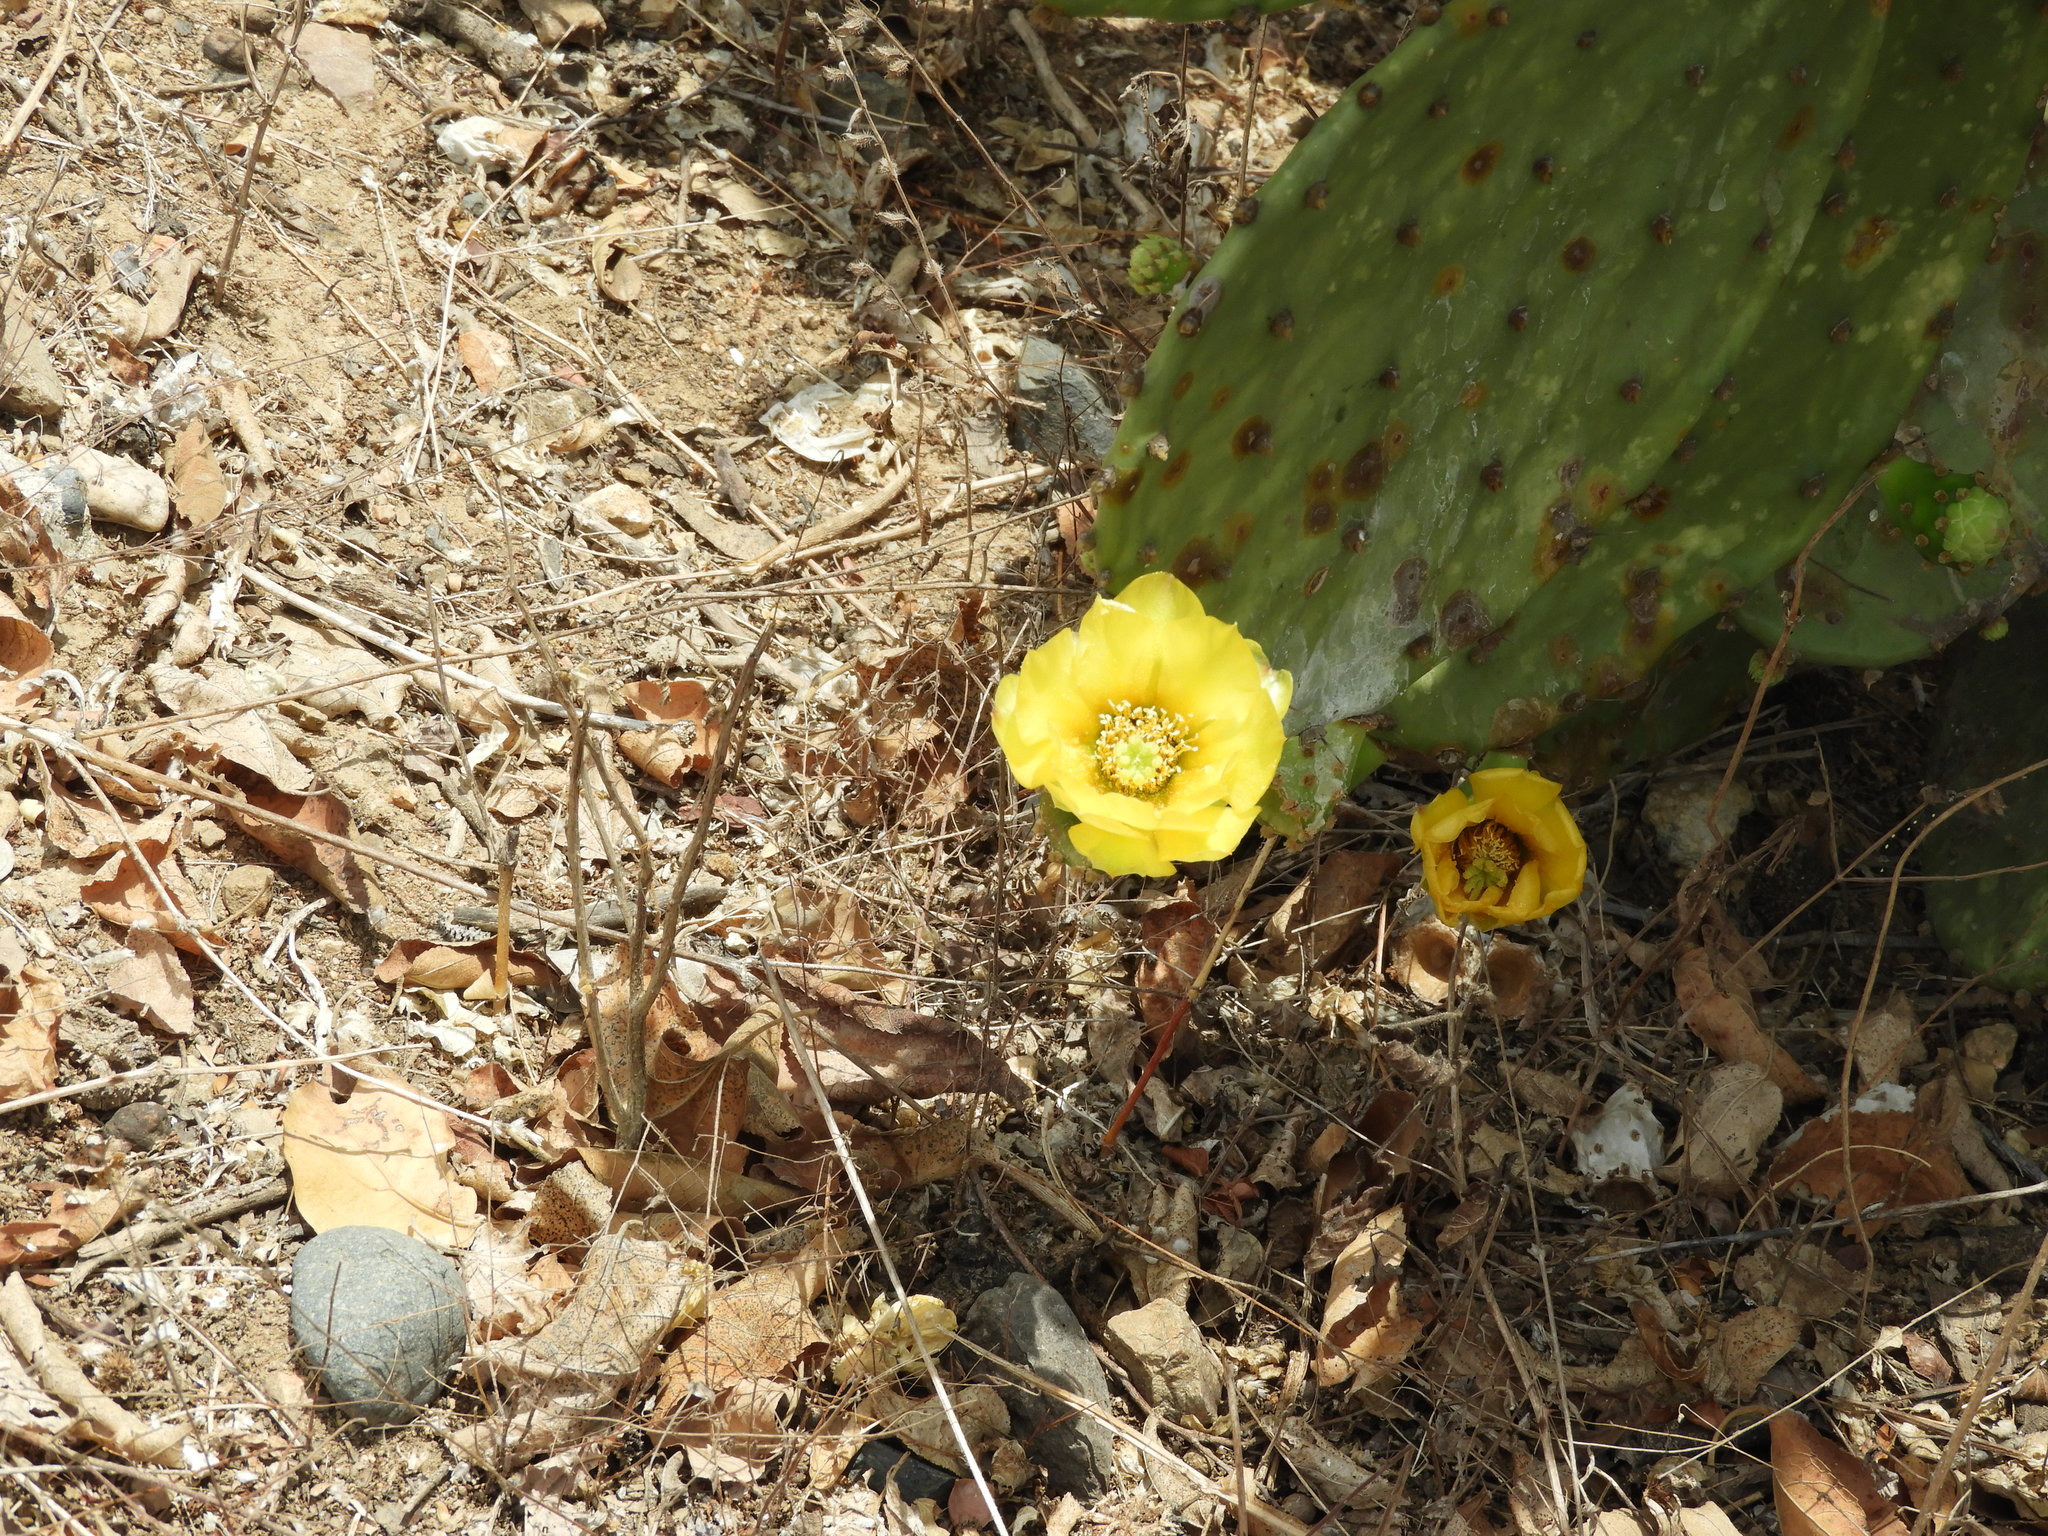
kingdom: Plantae
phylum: Tracheophyta
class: Magnoliopsida
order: Caryophyllales
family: Cactaceae
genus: Opuntia
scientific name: Opuntia
